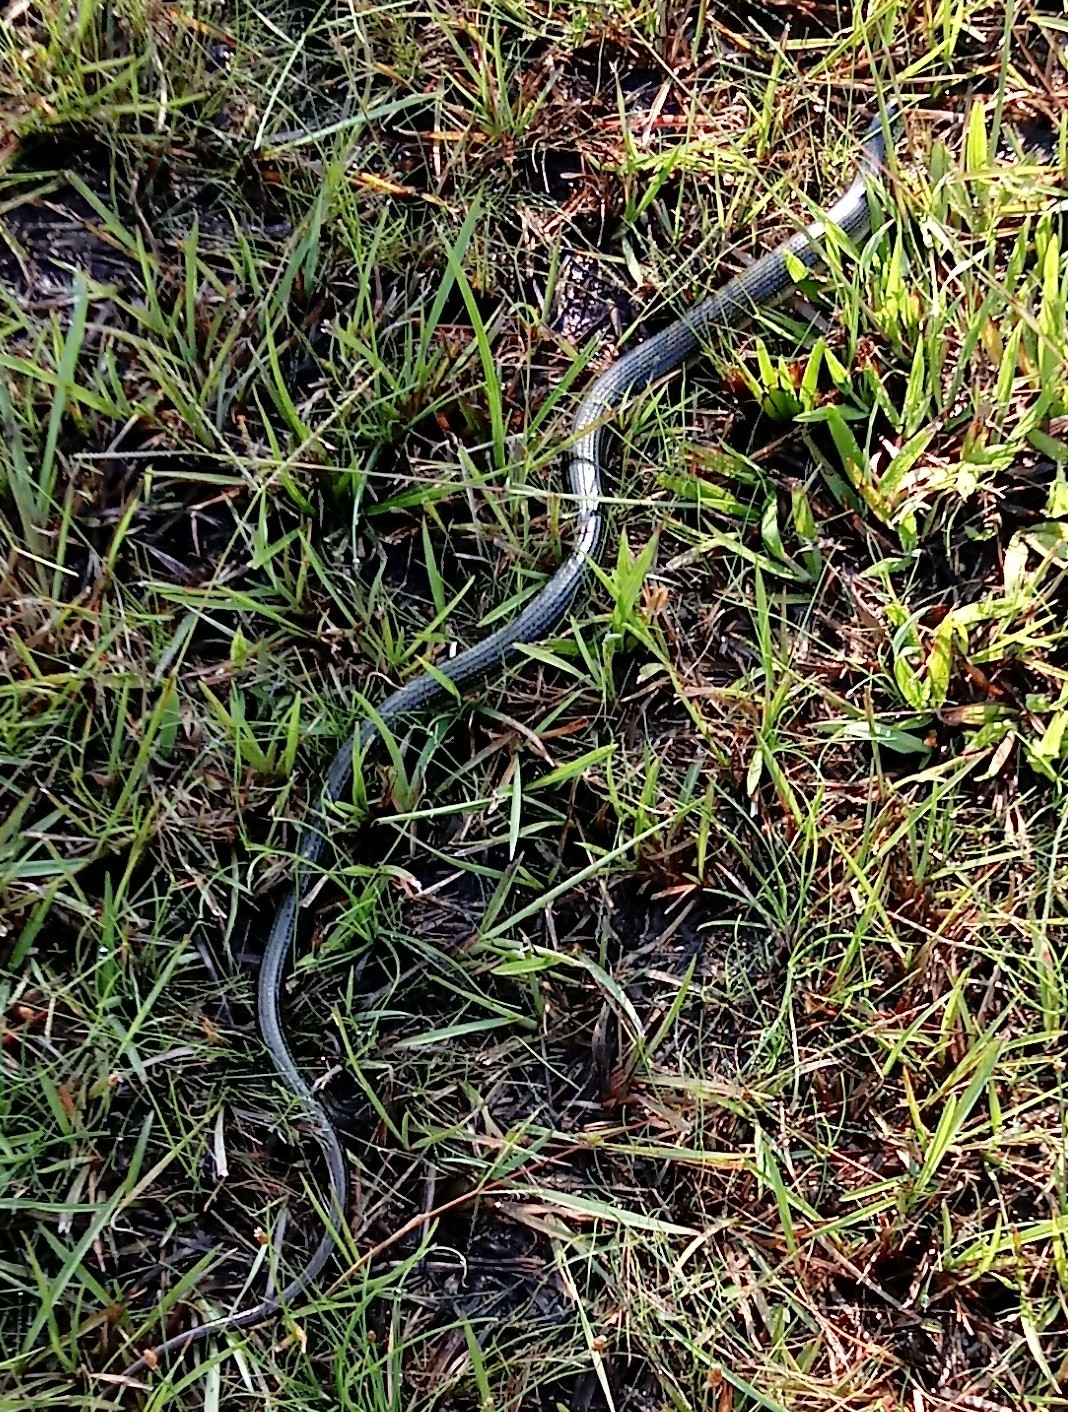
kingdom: Animalia
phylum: Chordata
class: Squamata
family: Anguidae
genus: Ophisaurus
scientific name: Ophisaurus ventralis
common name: Eastern glass lizard
